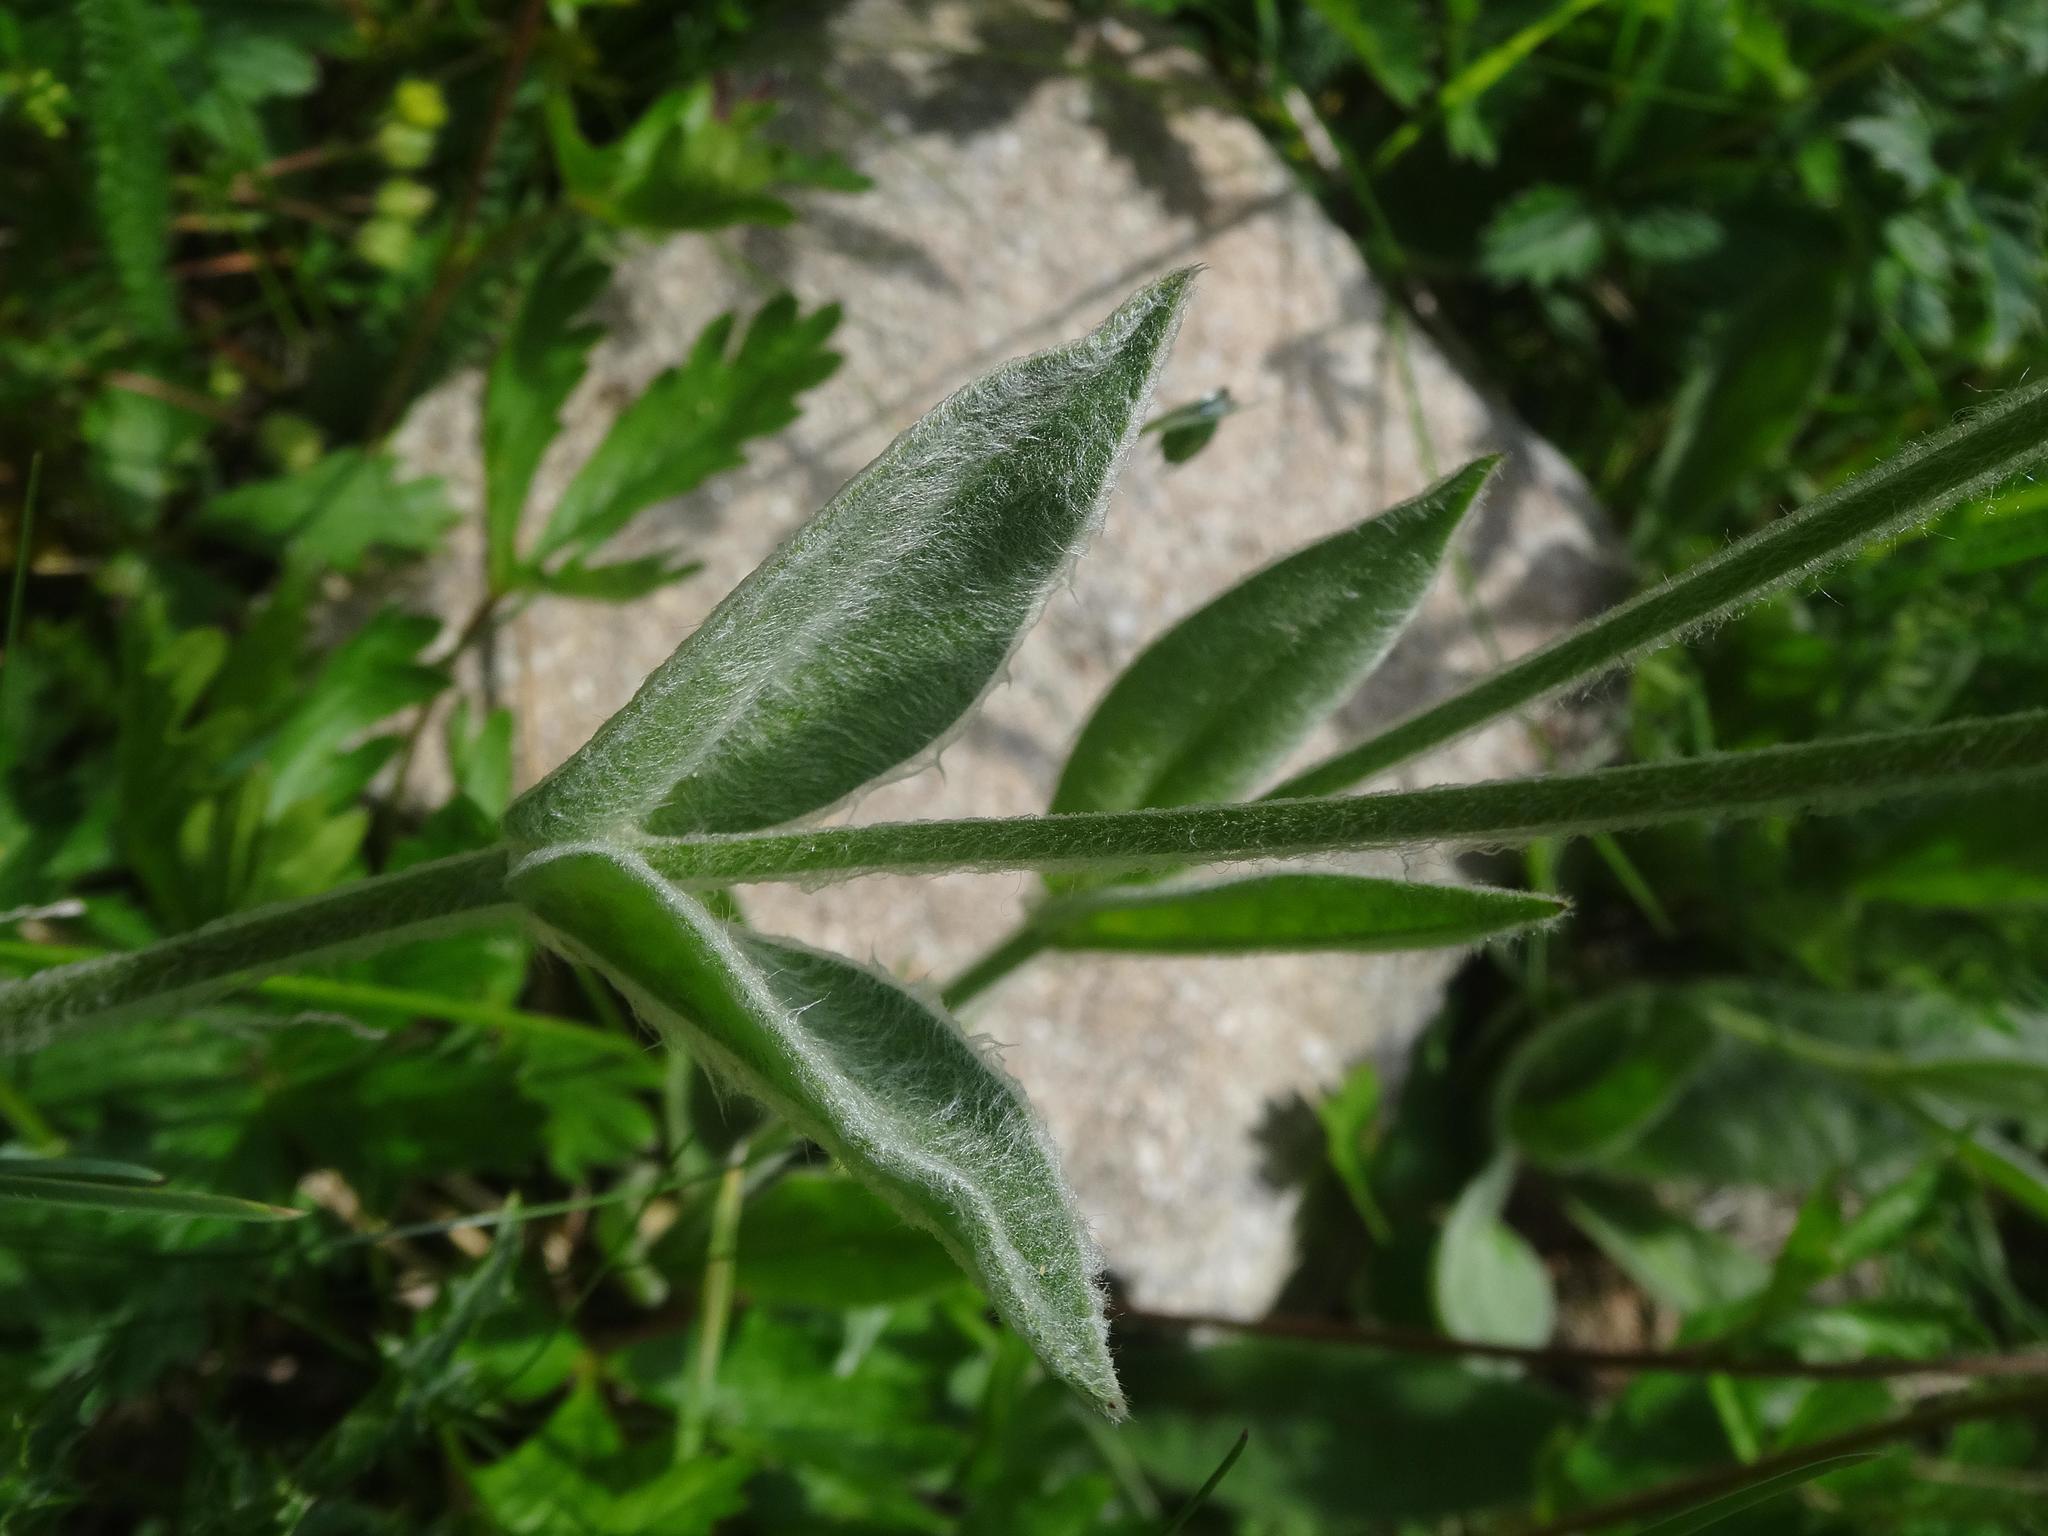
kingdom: Plantae
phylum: Tracheophyta
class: Magnoliopsida
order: Caryophyllales
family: Caryophyllaceae
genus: Silene
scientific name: Silene flos-jovis
